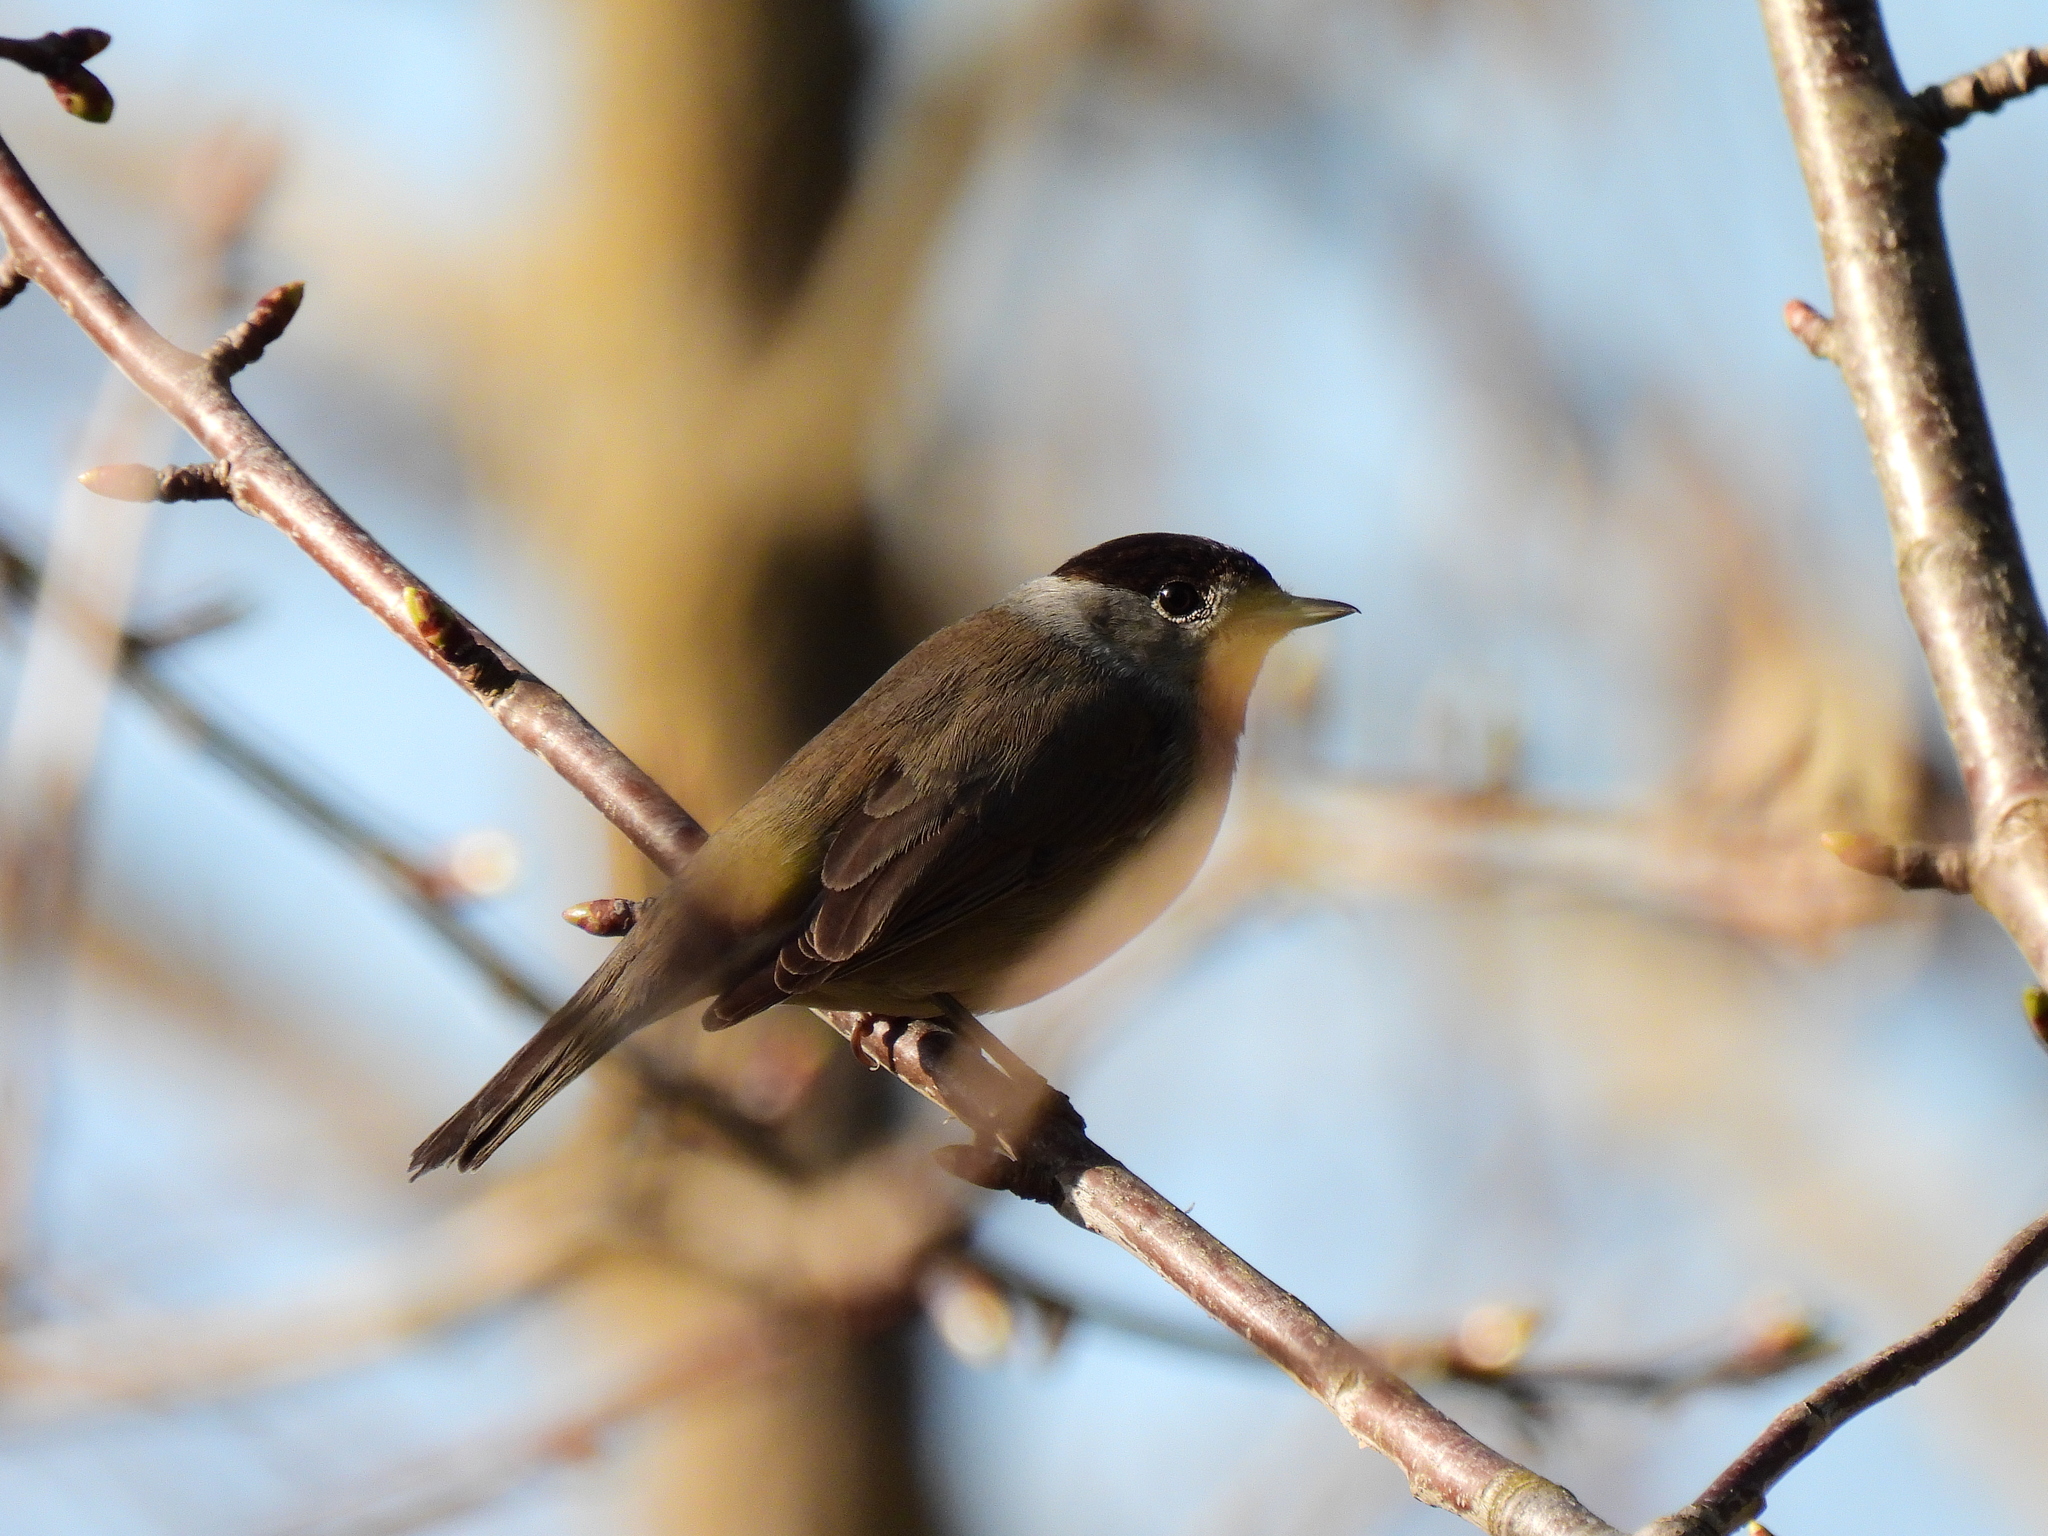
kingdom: Animalia
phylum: Chordata
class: Aves
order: Passeriformes
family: Sylviidae
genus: Sylvia
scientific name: Sylvia atricapilla
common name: Eurasian blackcap
